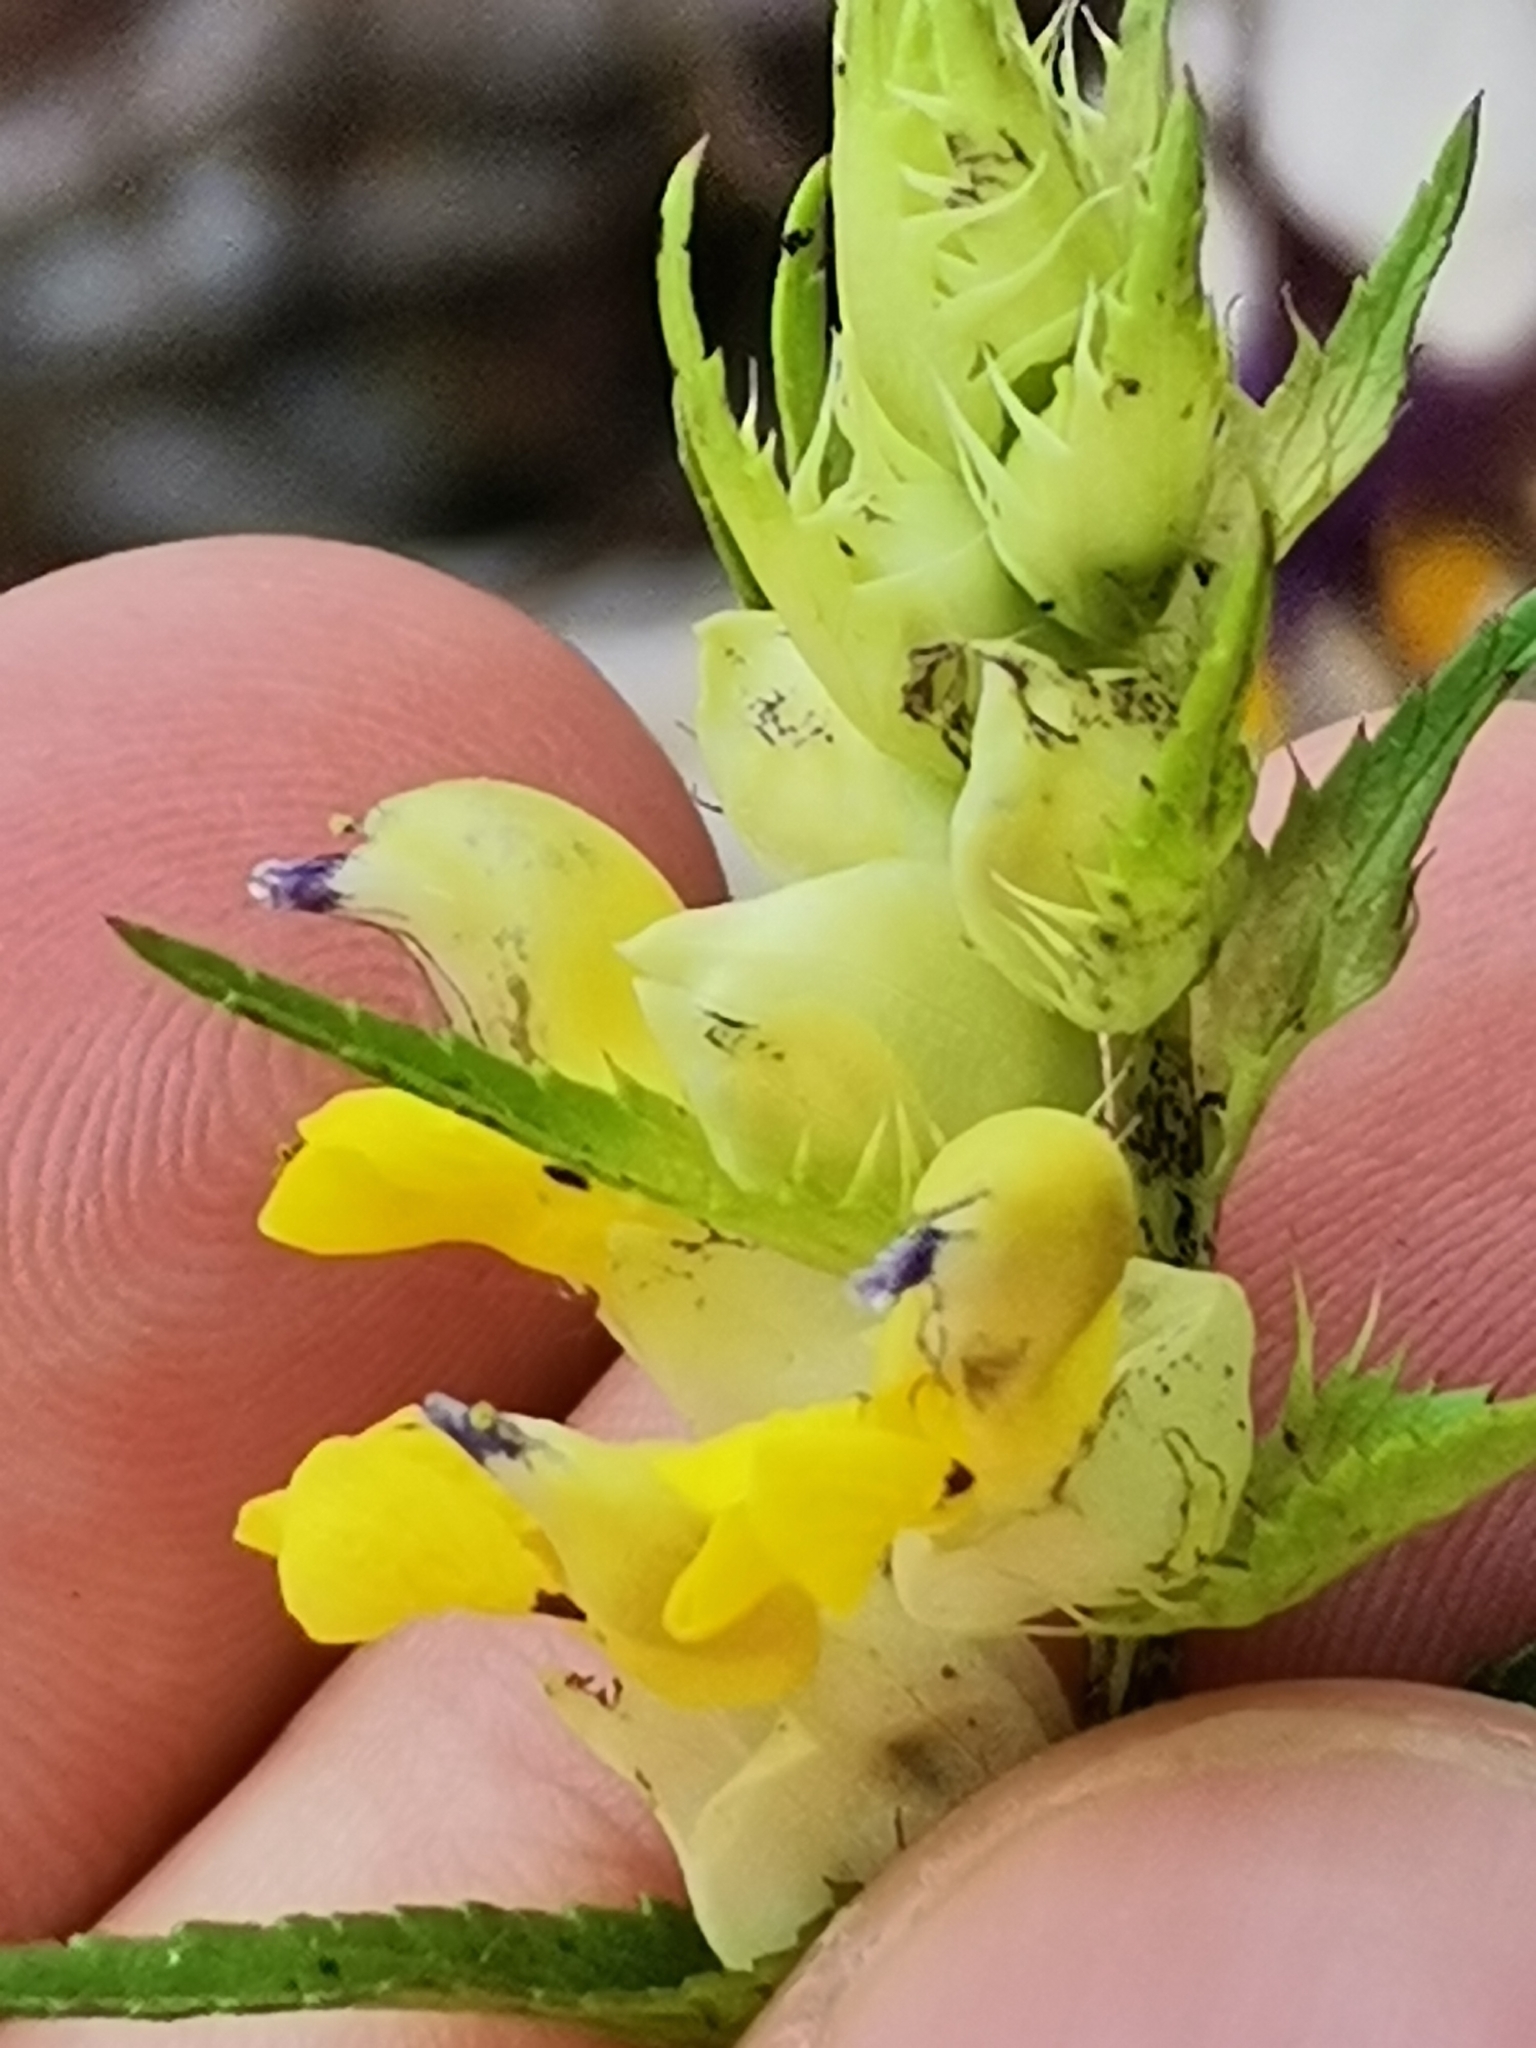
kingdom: Plantae
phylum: Tracheophyta
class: Magnoliopsida
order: Lamiales
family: Orobanchaceae
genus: Rhinanthus
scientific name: Rhinanthus minor
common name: Yellow-rattle
